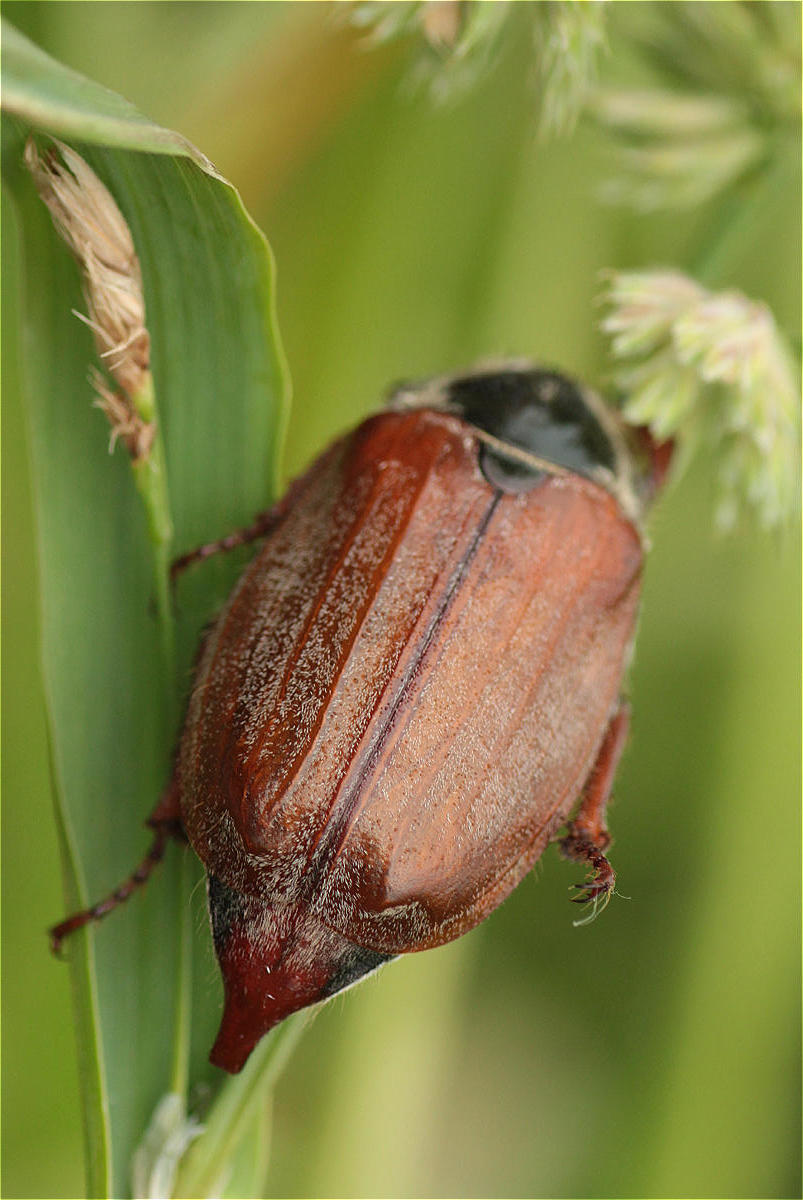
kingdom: Animalia
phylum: Arthropoda
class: Insecta
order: Coleoptera
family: Scarabaeidae
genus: Melolontha
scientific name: Melolontha melolontha
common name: Cockchafer maybeetle
